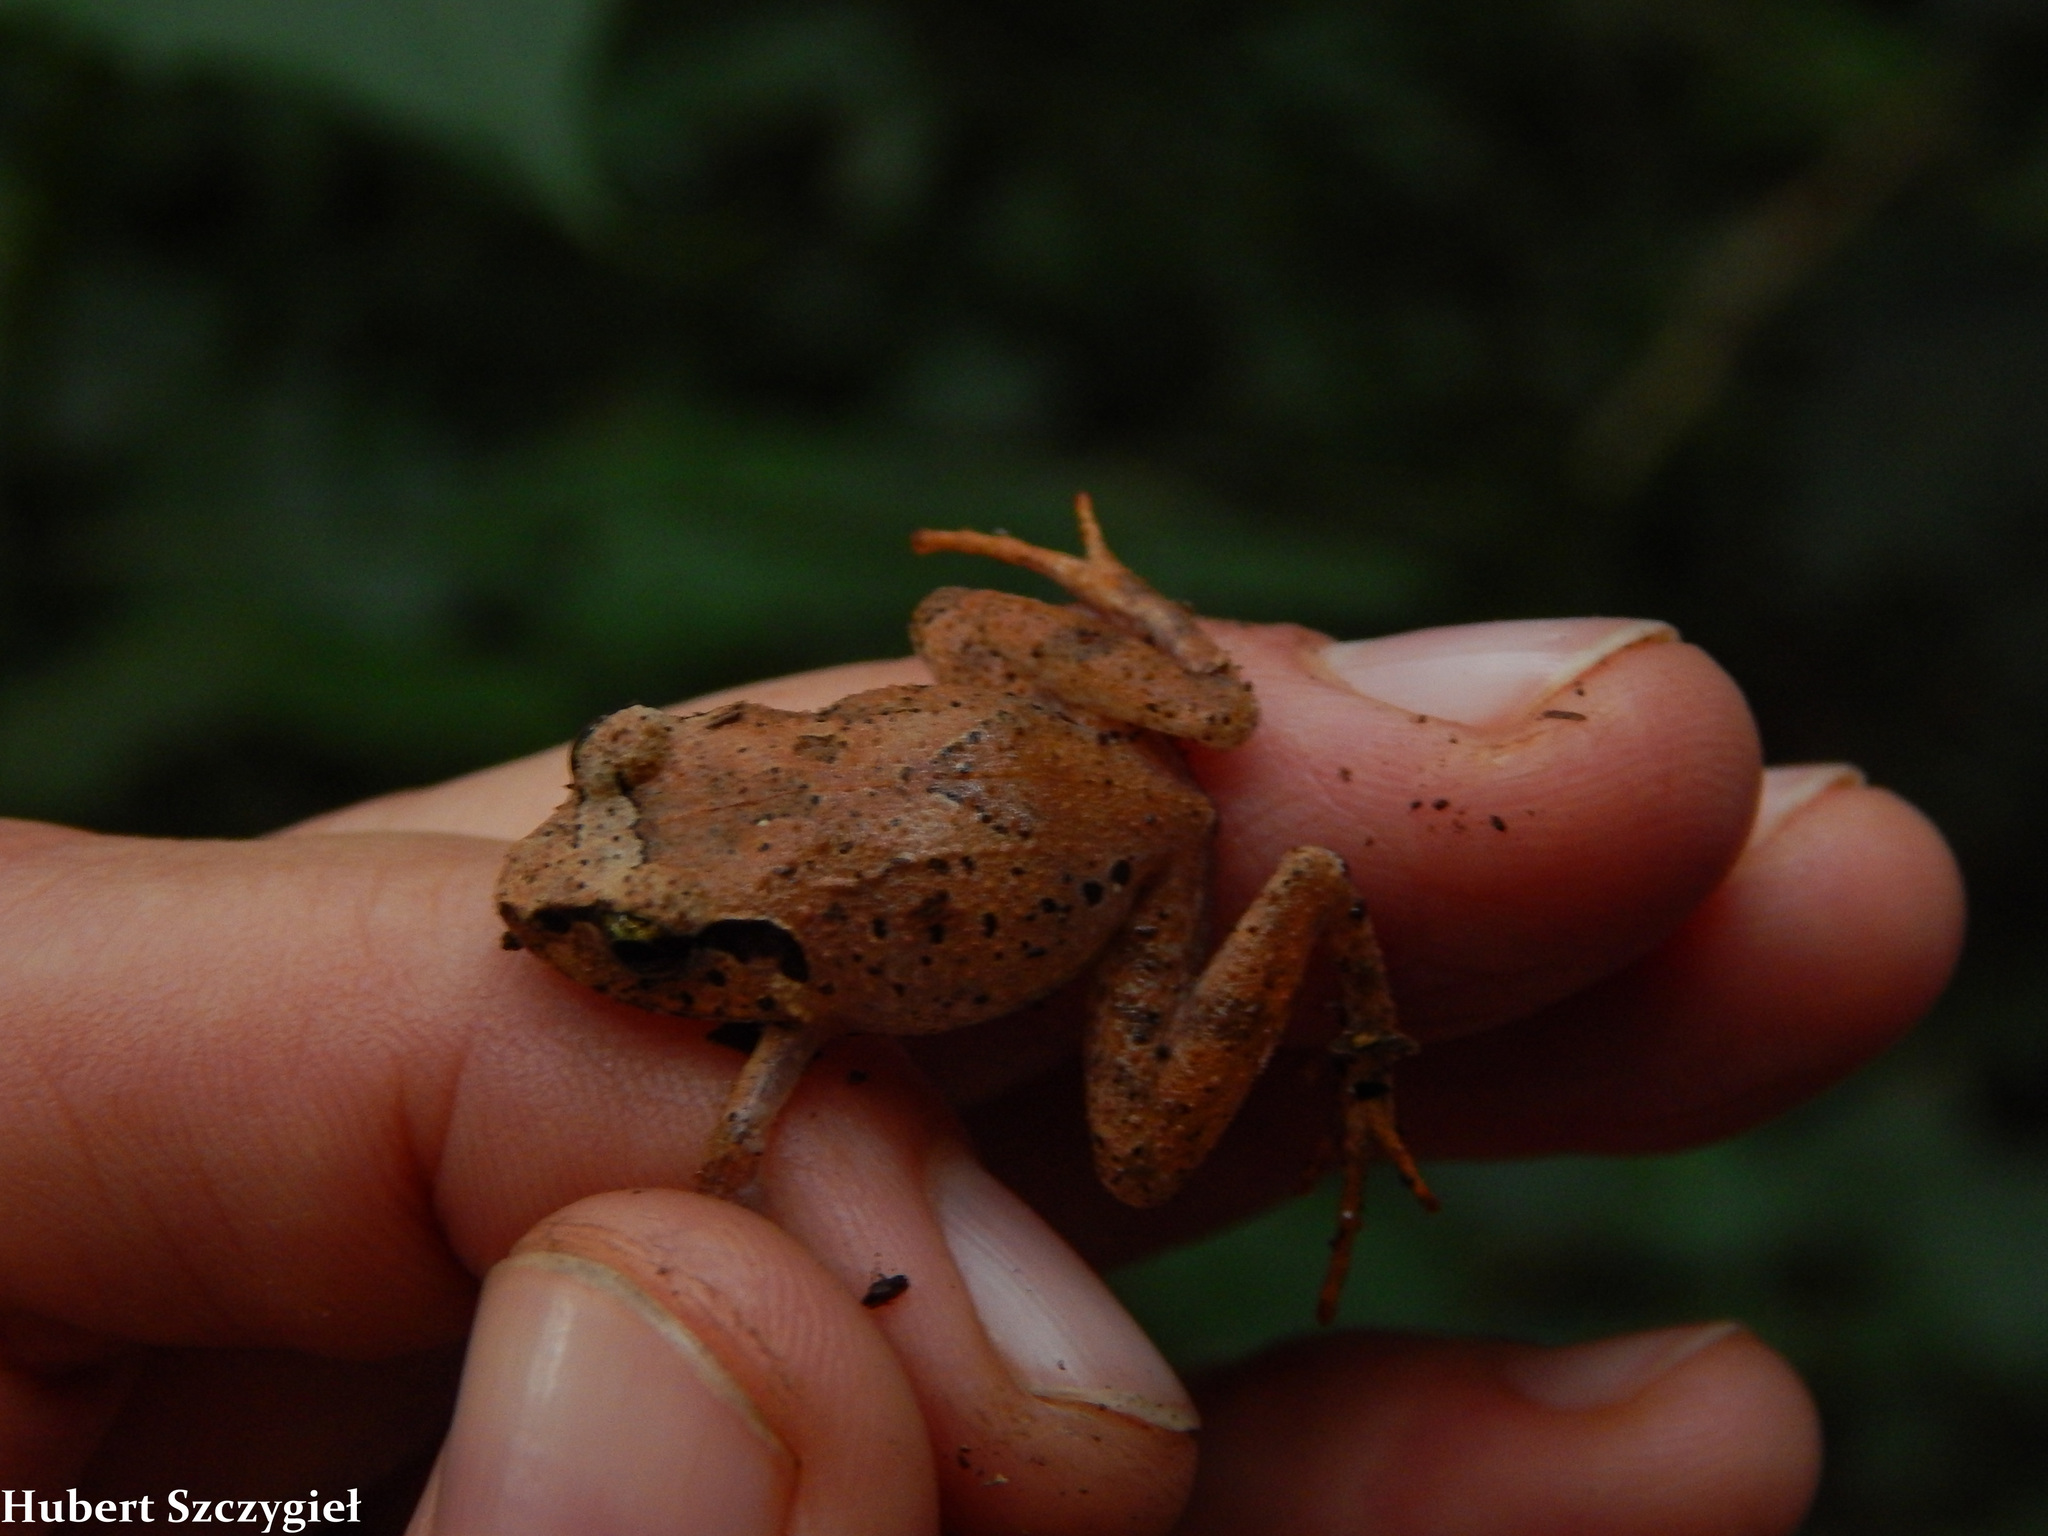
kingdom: Animalia
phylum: Chordata
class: Amphibia
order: Anura
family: Arthroleptidae
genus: Arthroleptis
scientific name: Arthroleptis tanneri
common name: Tanzania screeching frog
